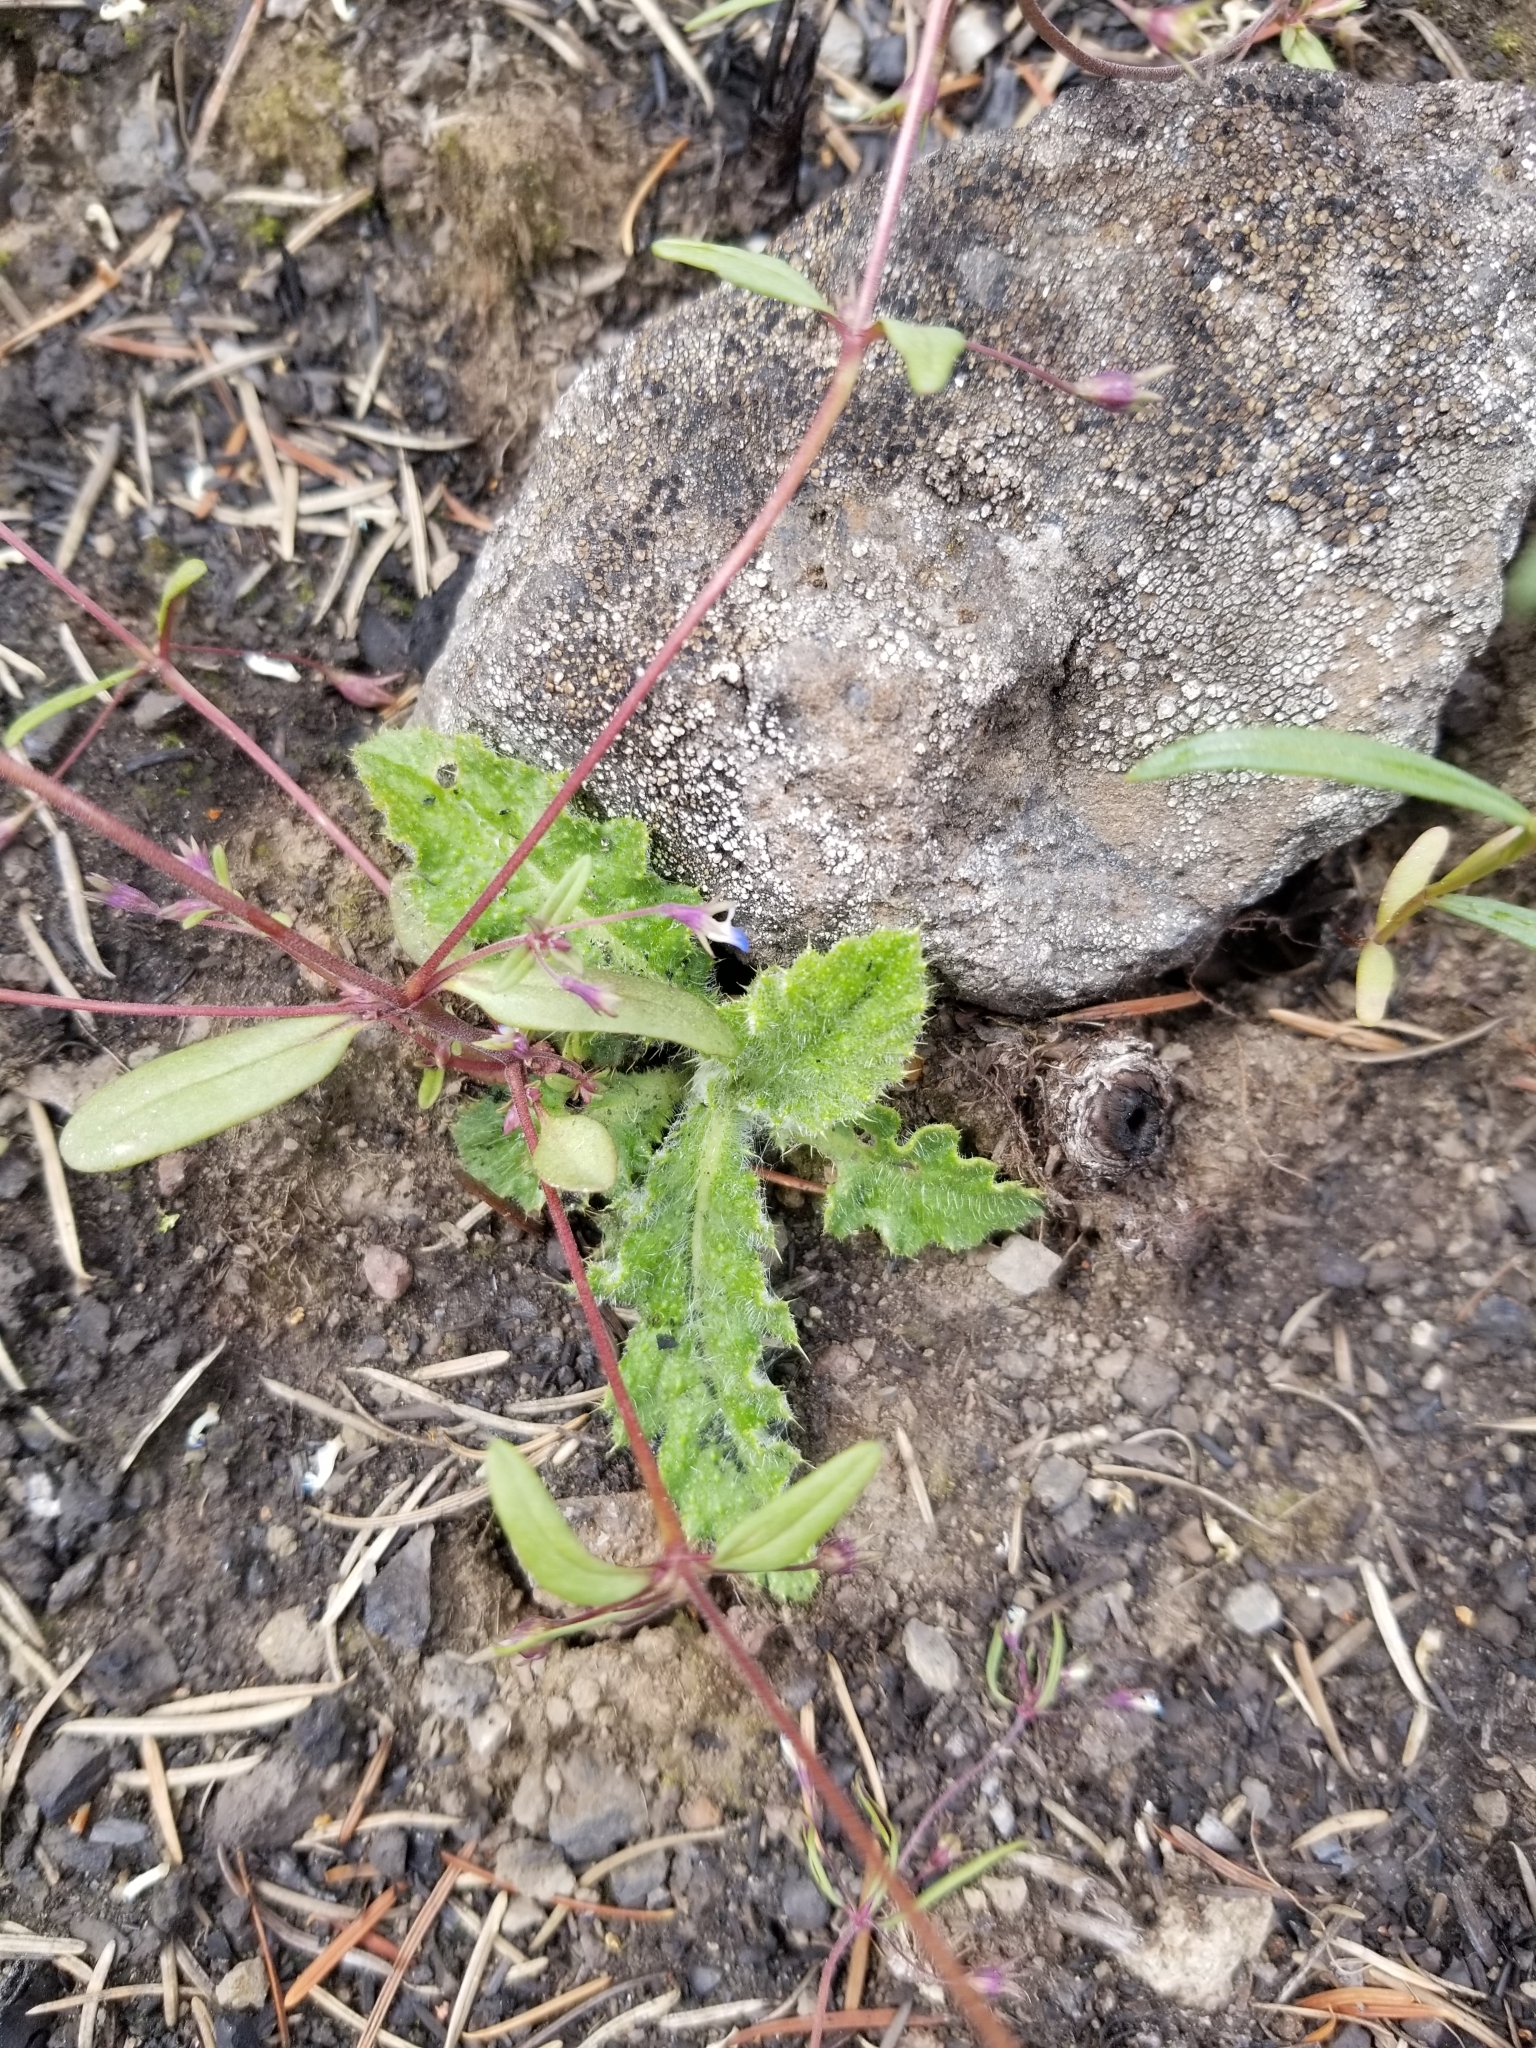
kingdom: Plantae
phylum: Tracheophyta
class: Magnoliopsida
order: Asterales
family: Asteraceae
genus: Cirsium
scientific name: Cirsium vulgare
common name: Bull thistle
